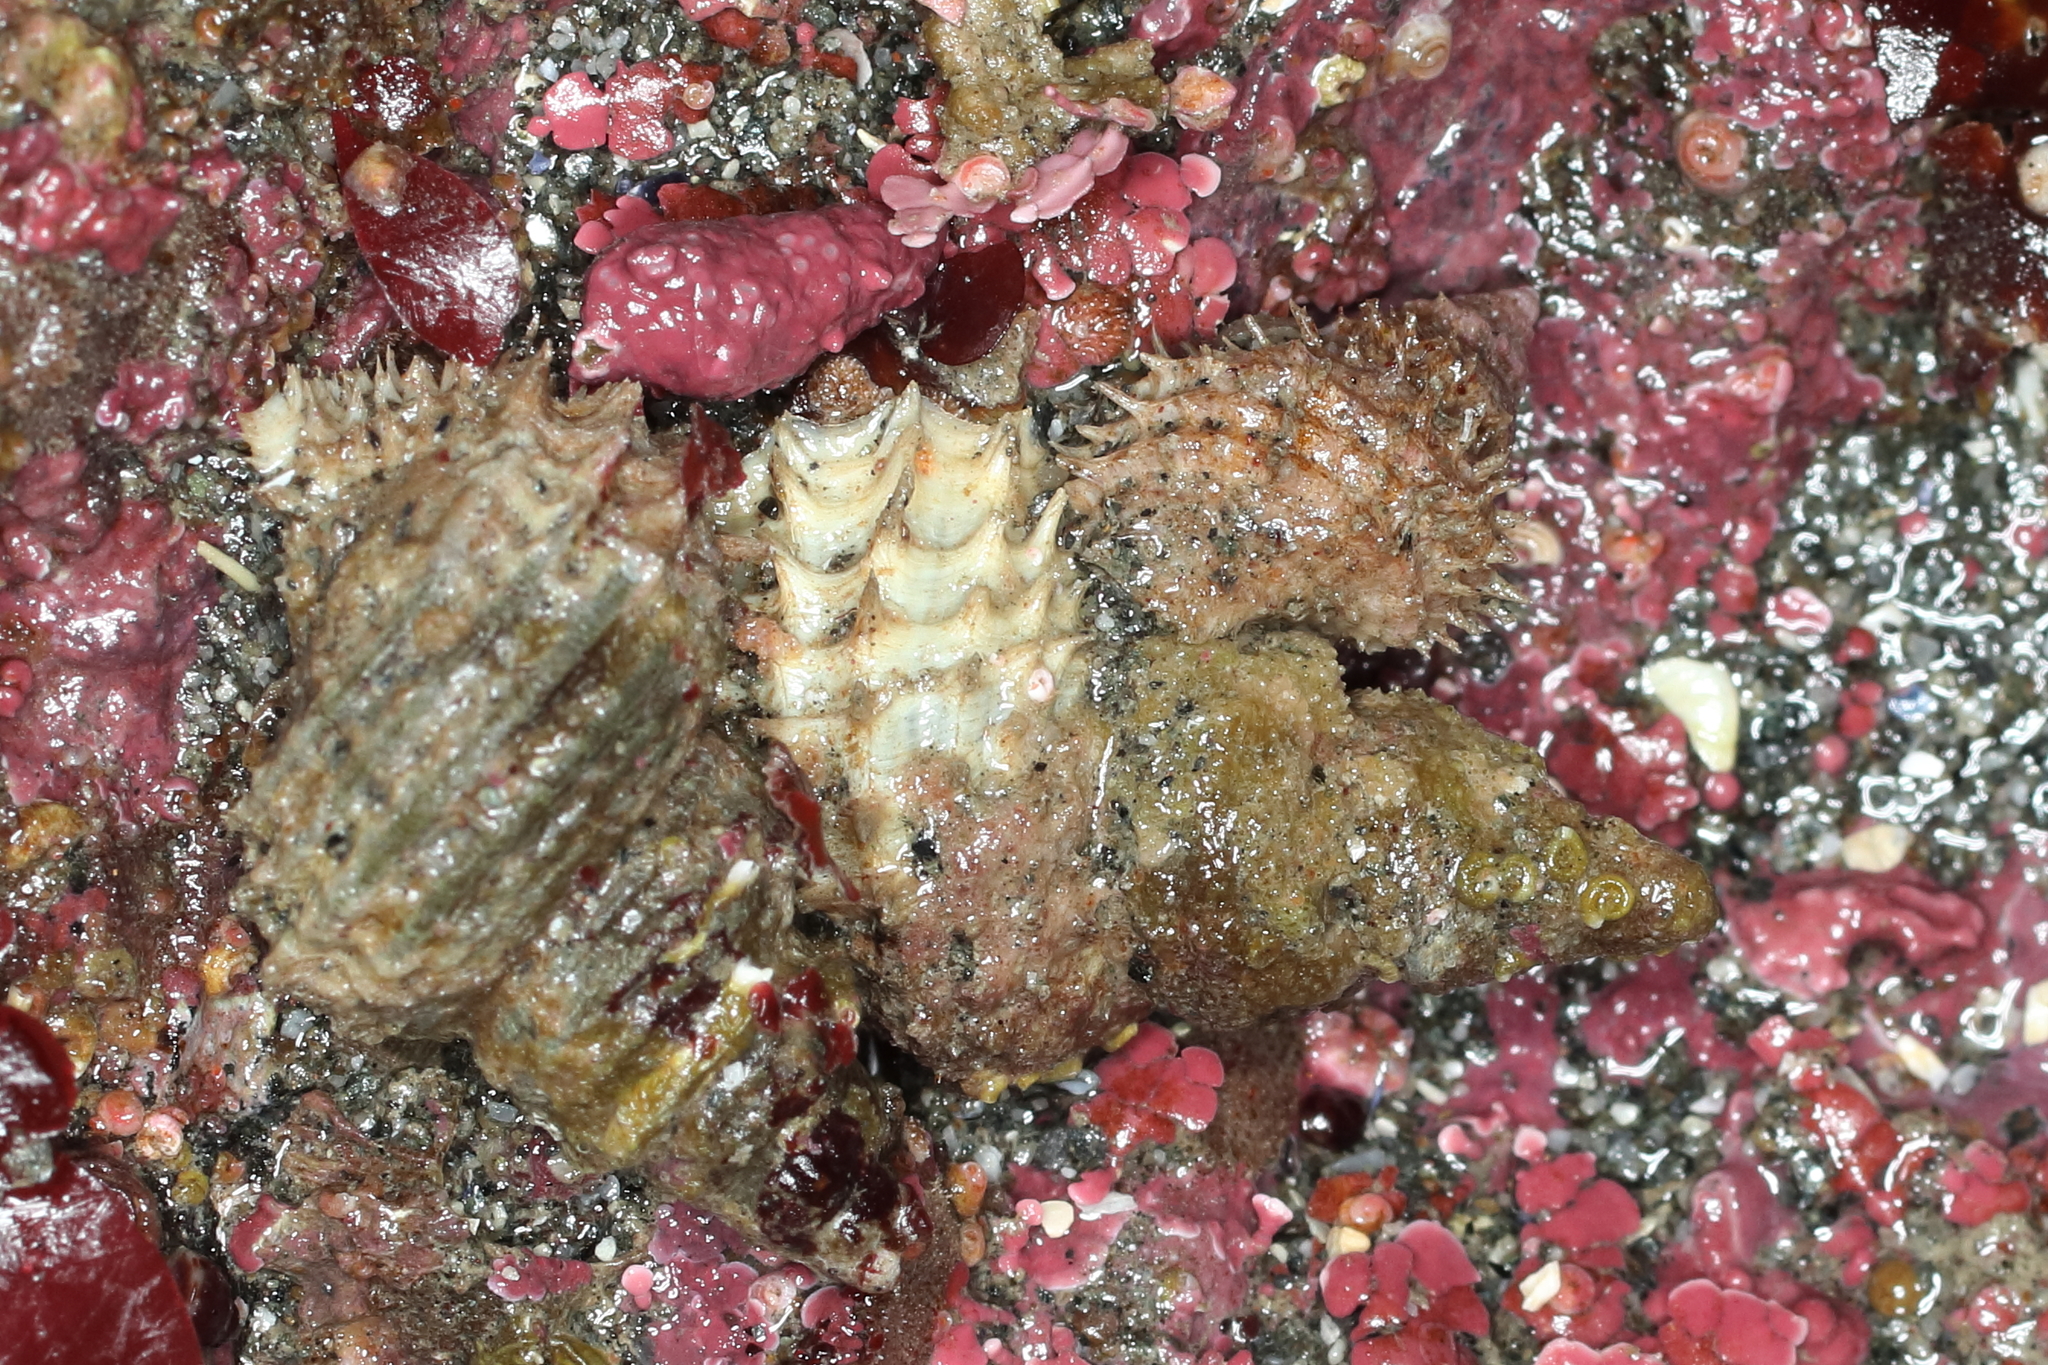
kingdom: Animalia
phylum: Mollusca
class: Gastropoda
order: Littorinimorpha
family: Capulidae
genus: Trichotropis
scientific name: Trichotropis cancellata
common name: Cancellate hairysnail
